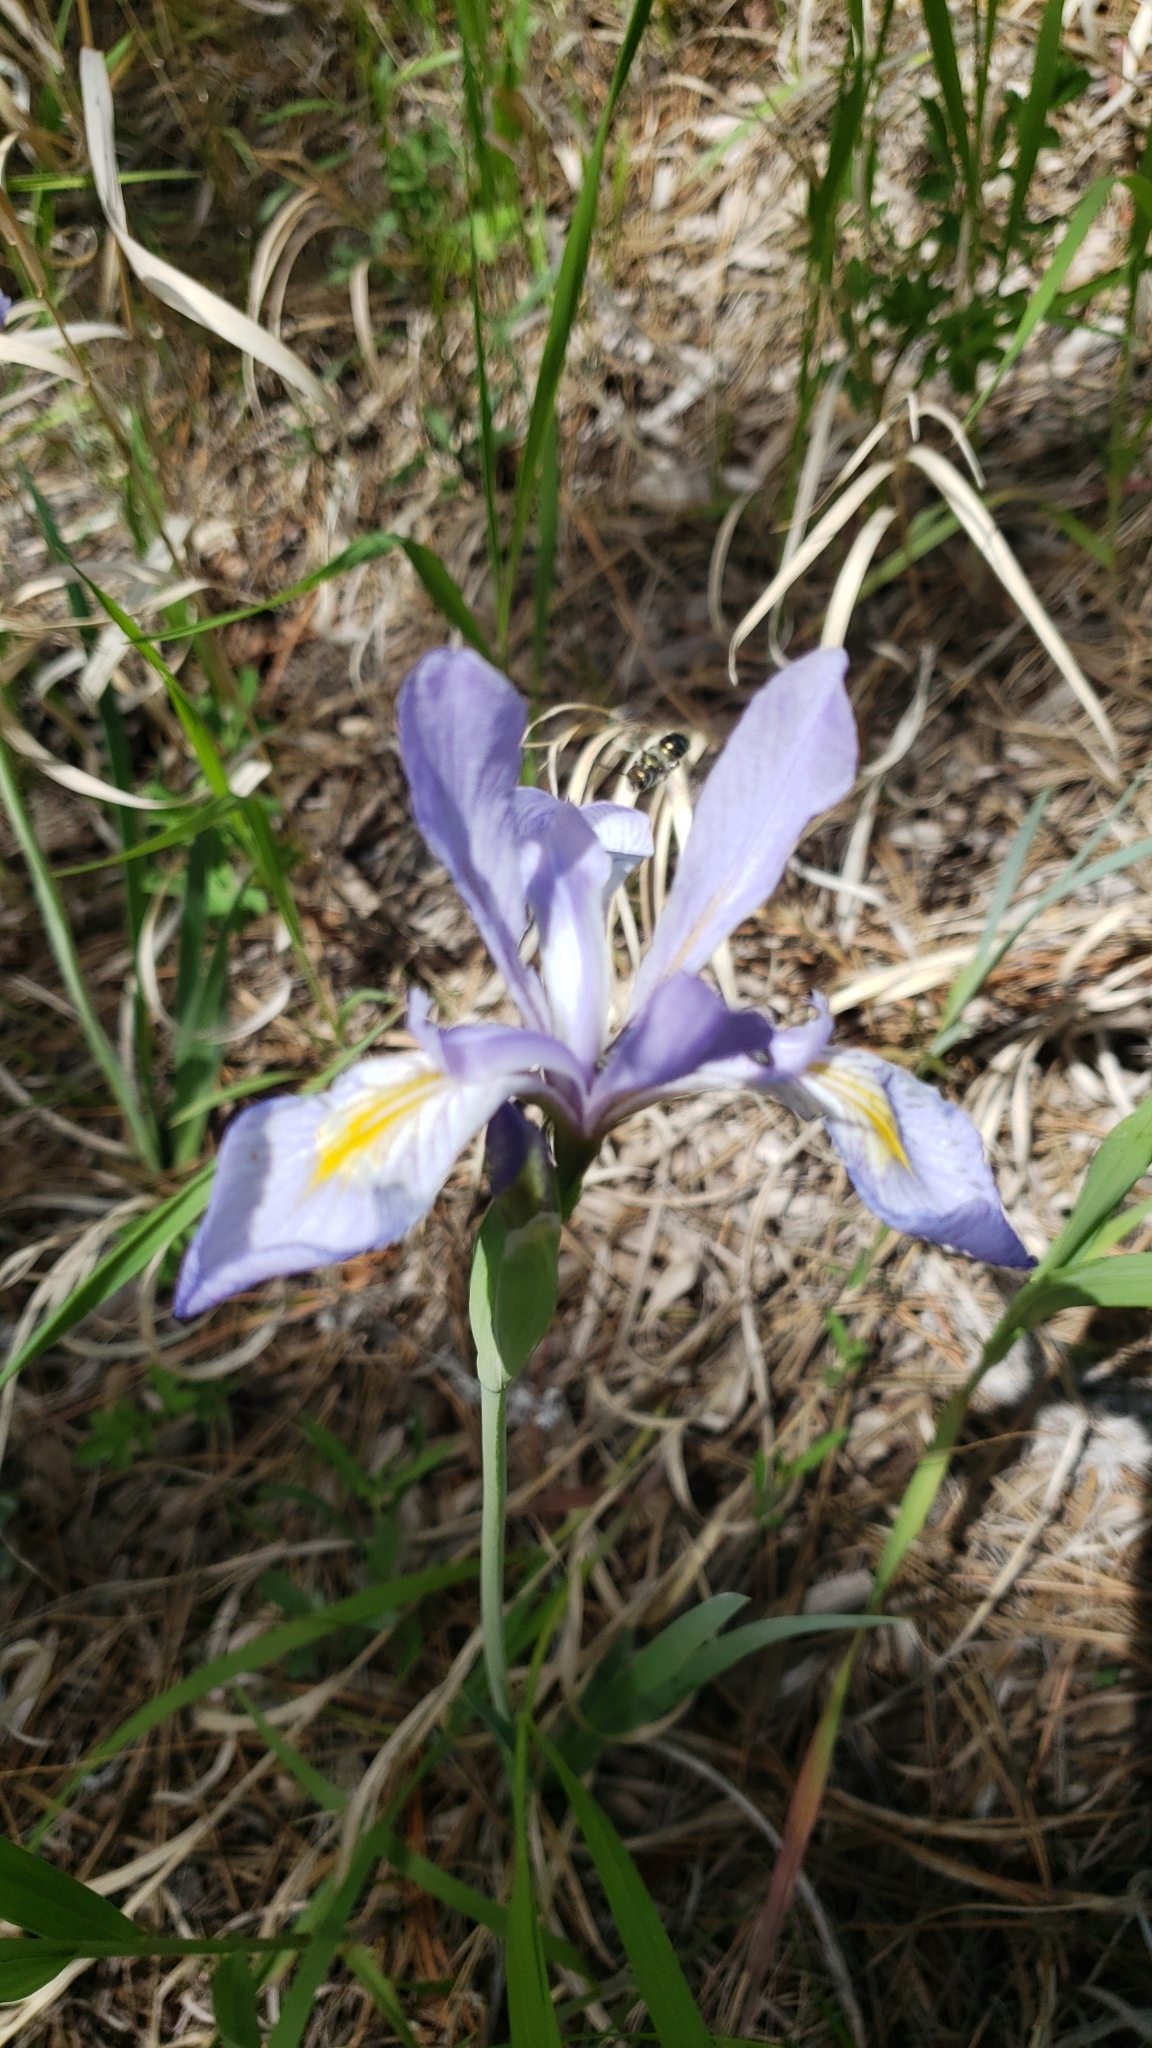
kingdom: Plantae
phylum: Tracheophyta
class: Liliopsida
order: Asparagales
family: Iridaceae
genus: Iris
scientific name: Iris missouriensis
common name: Rocky mountain iris
